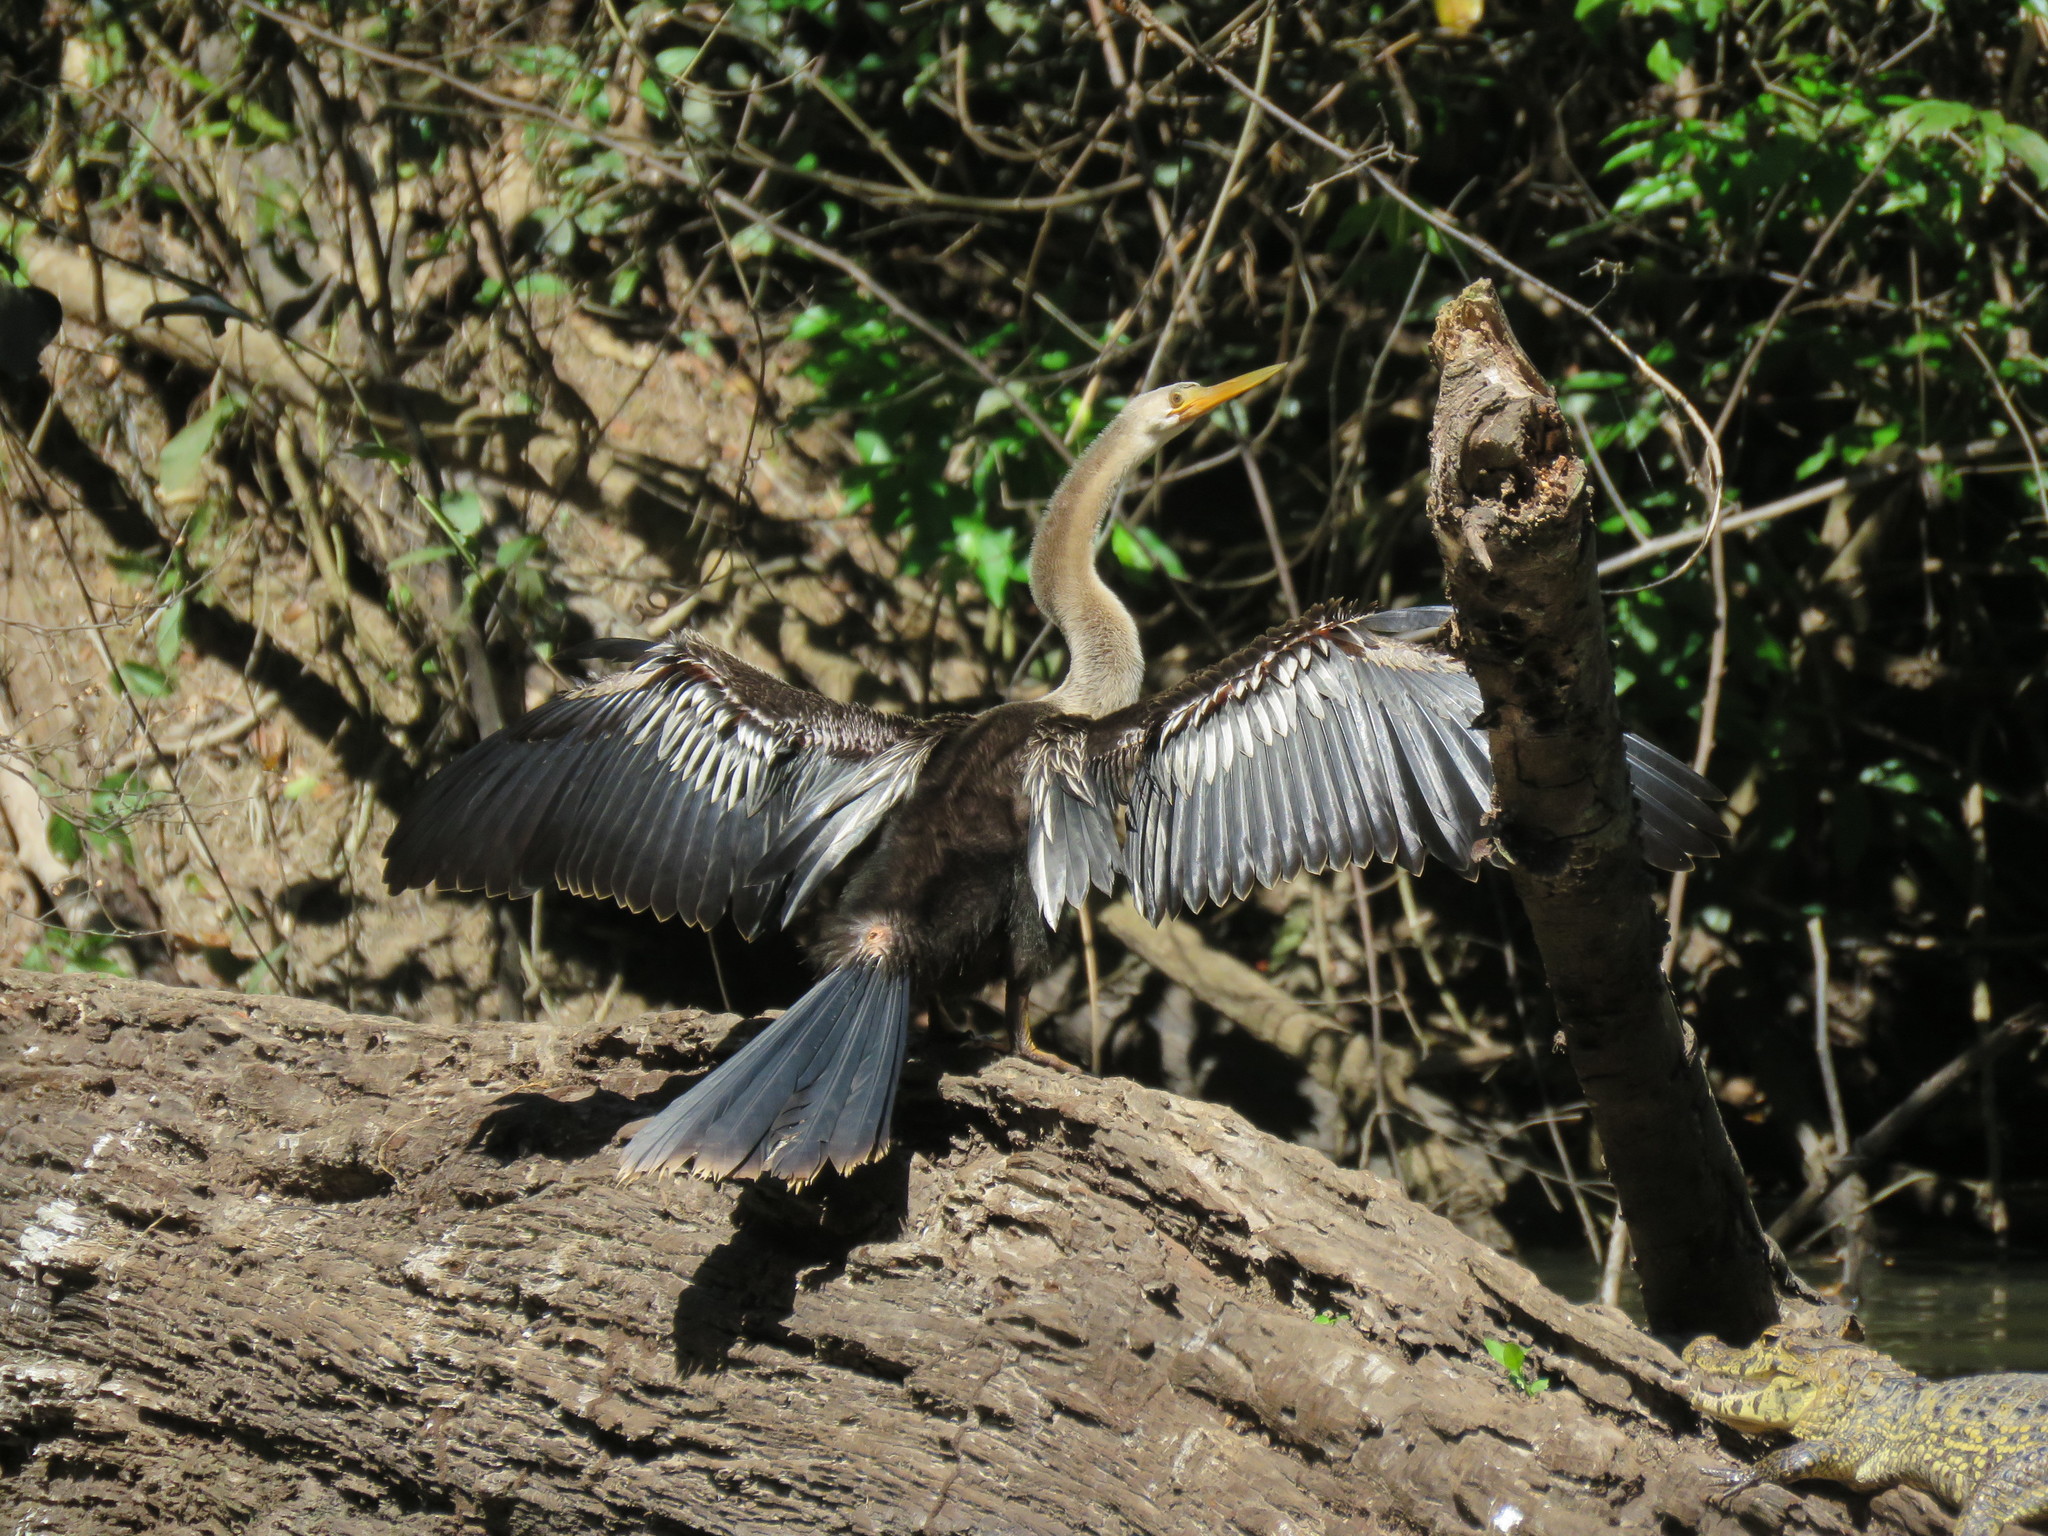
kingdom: Animalia
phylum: Chordata
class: Aves
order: Suliformes
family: Anhingidae
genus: Anhinga
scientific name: Anhinga anhinga
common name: Anhinga
